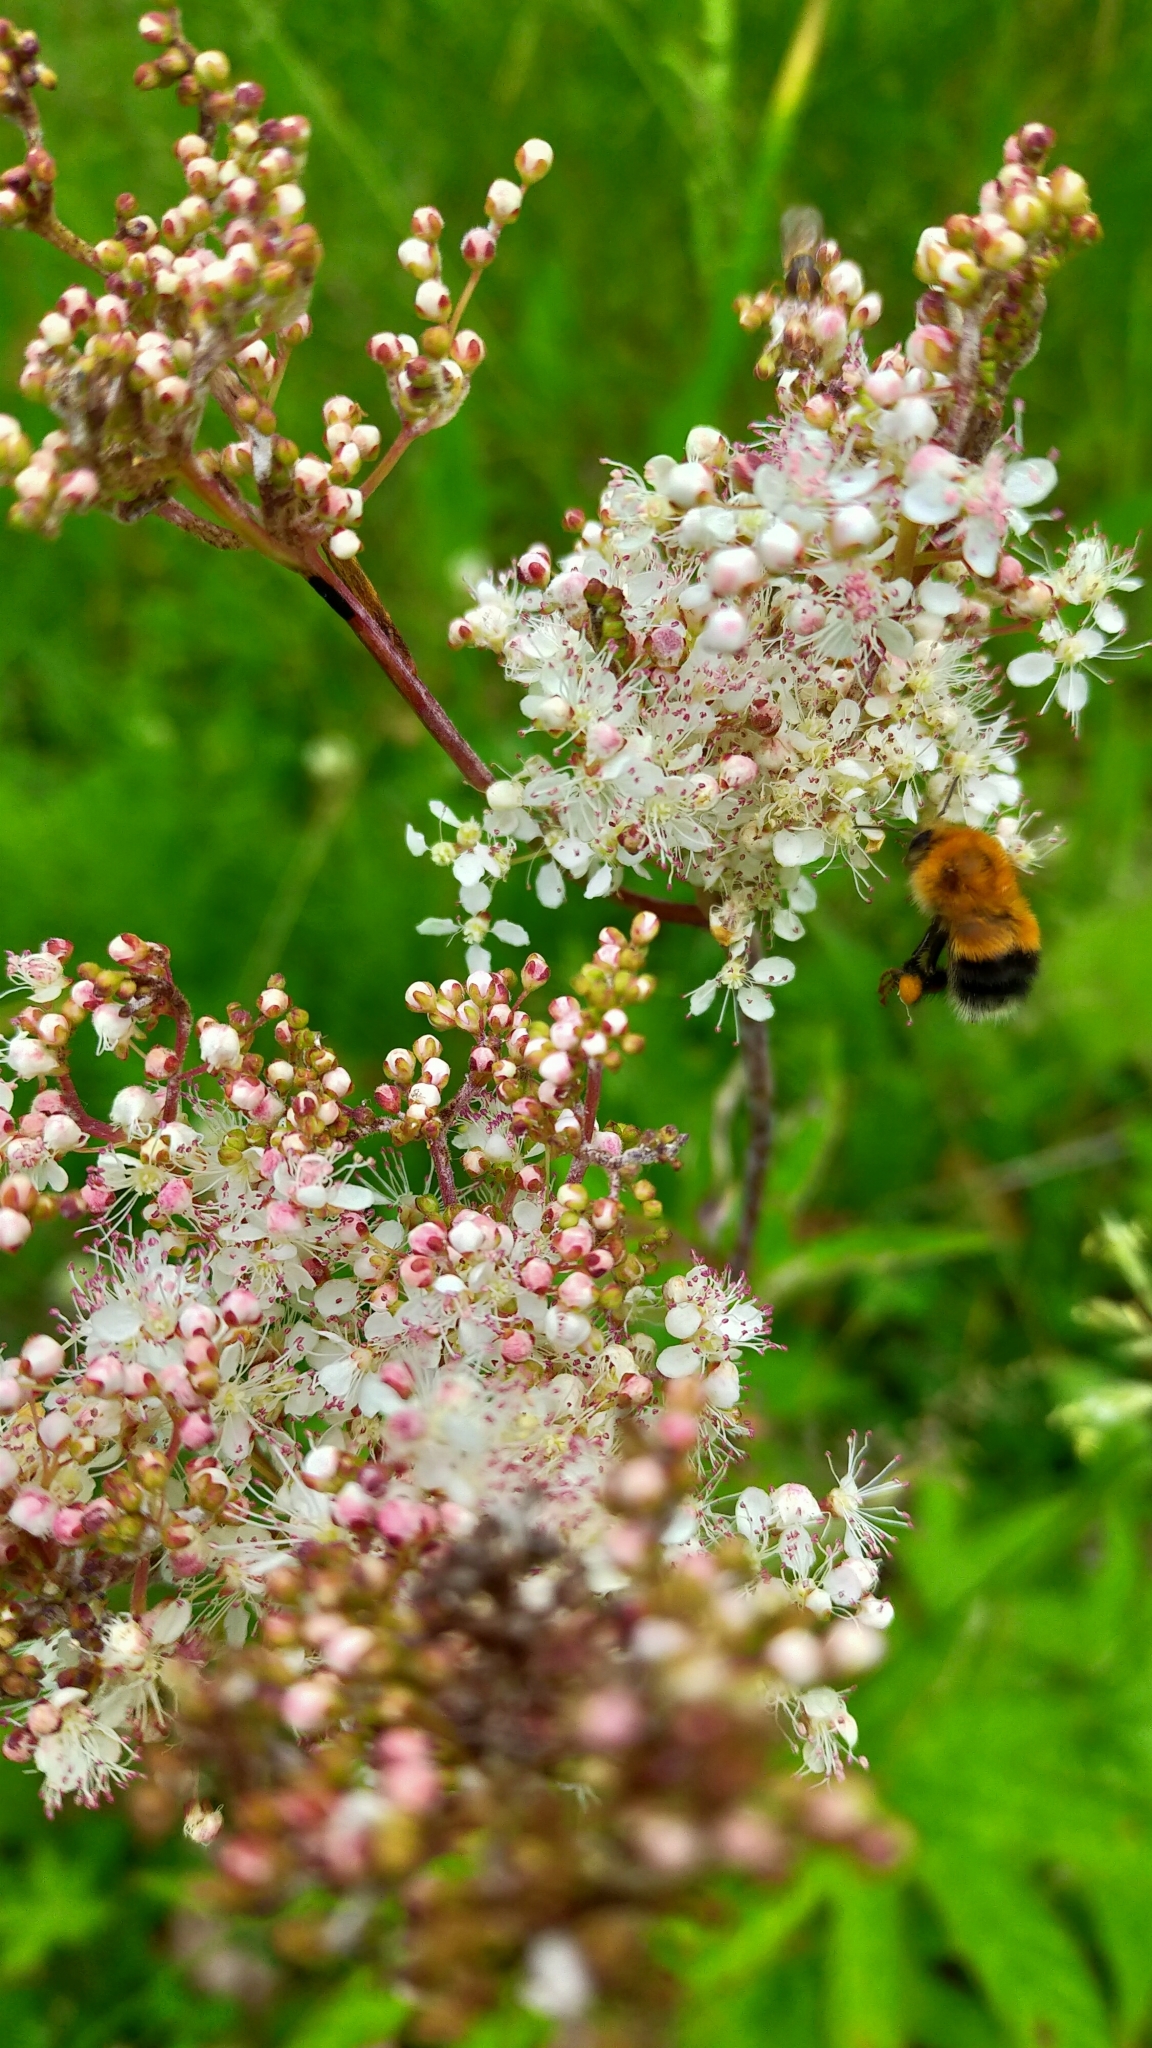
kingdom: Plantae
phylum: Tracheophyta
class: Magnoliopsida
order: Rosales
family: Rosaceae
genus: Filipendula
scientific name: Filipendula digitata
